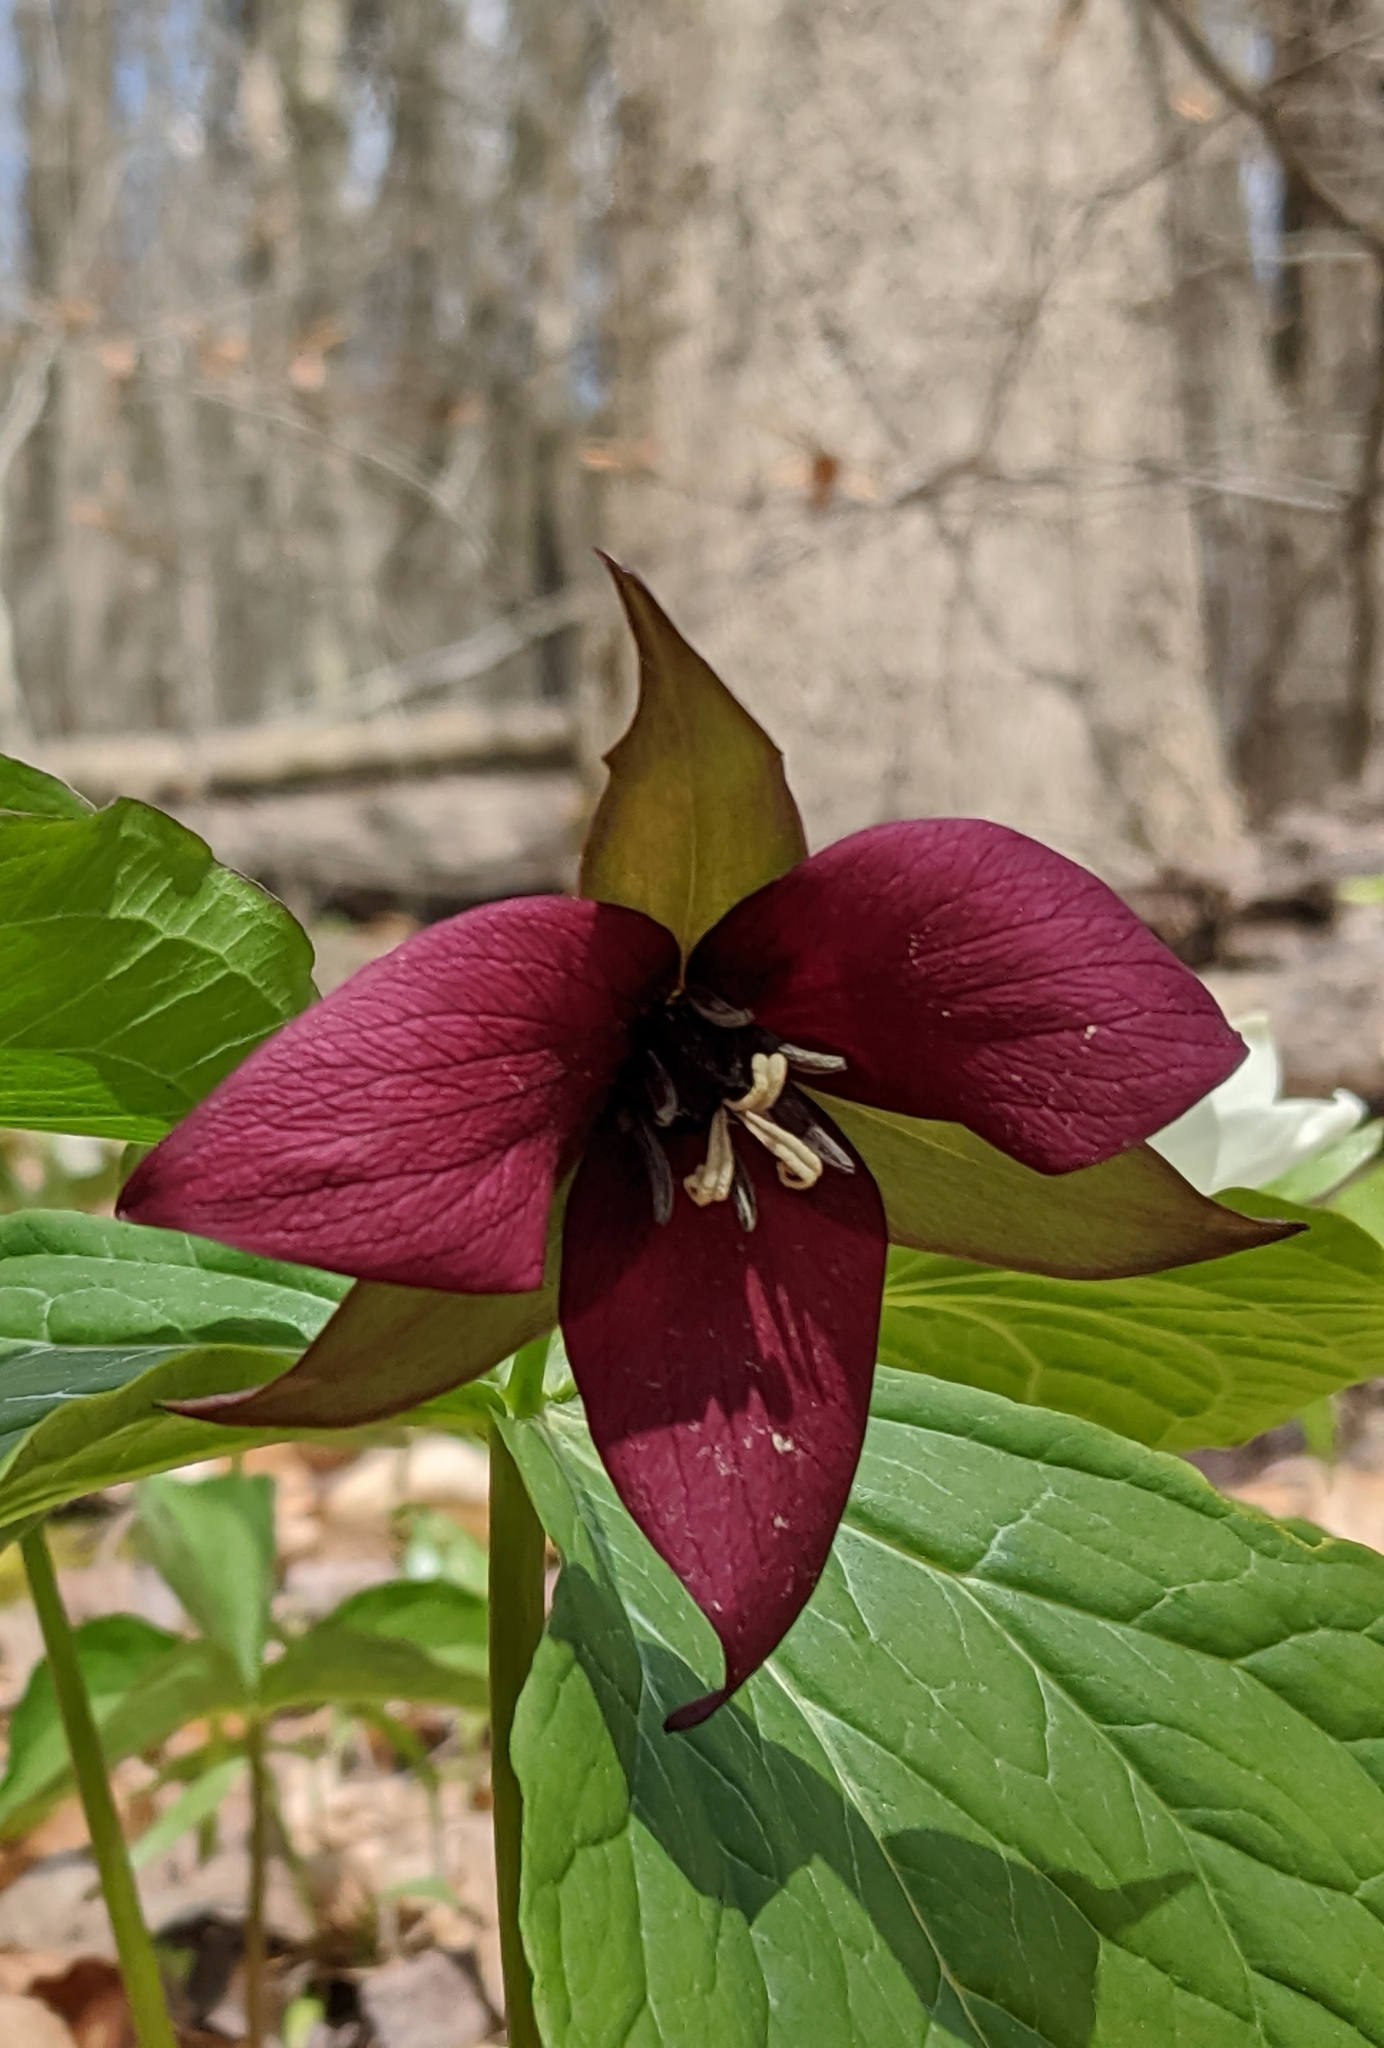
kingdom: Plantae
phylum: Tracheophyta
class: Liliopsida
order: Liliales
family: Melanthiaceae
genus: Trillium
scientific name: Trillium erectum
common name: Purple trillium
